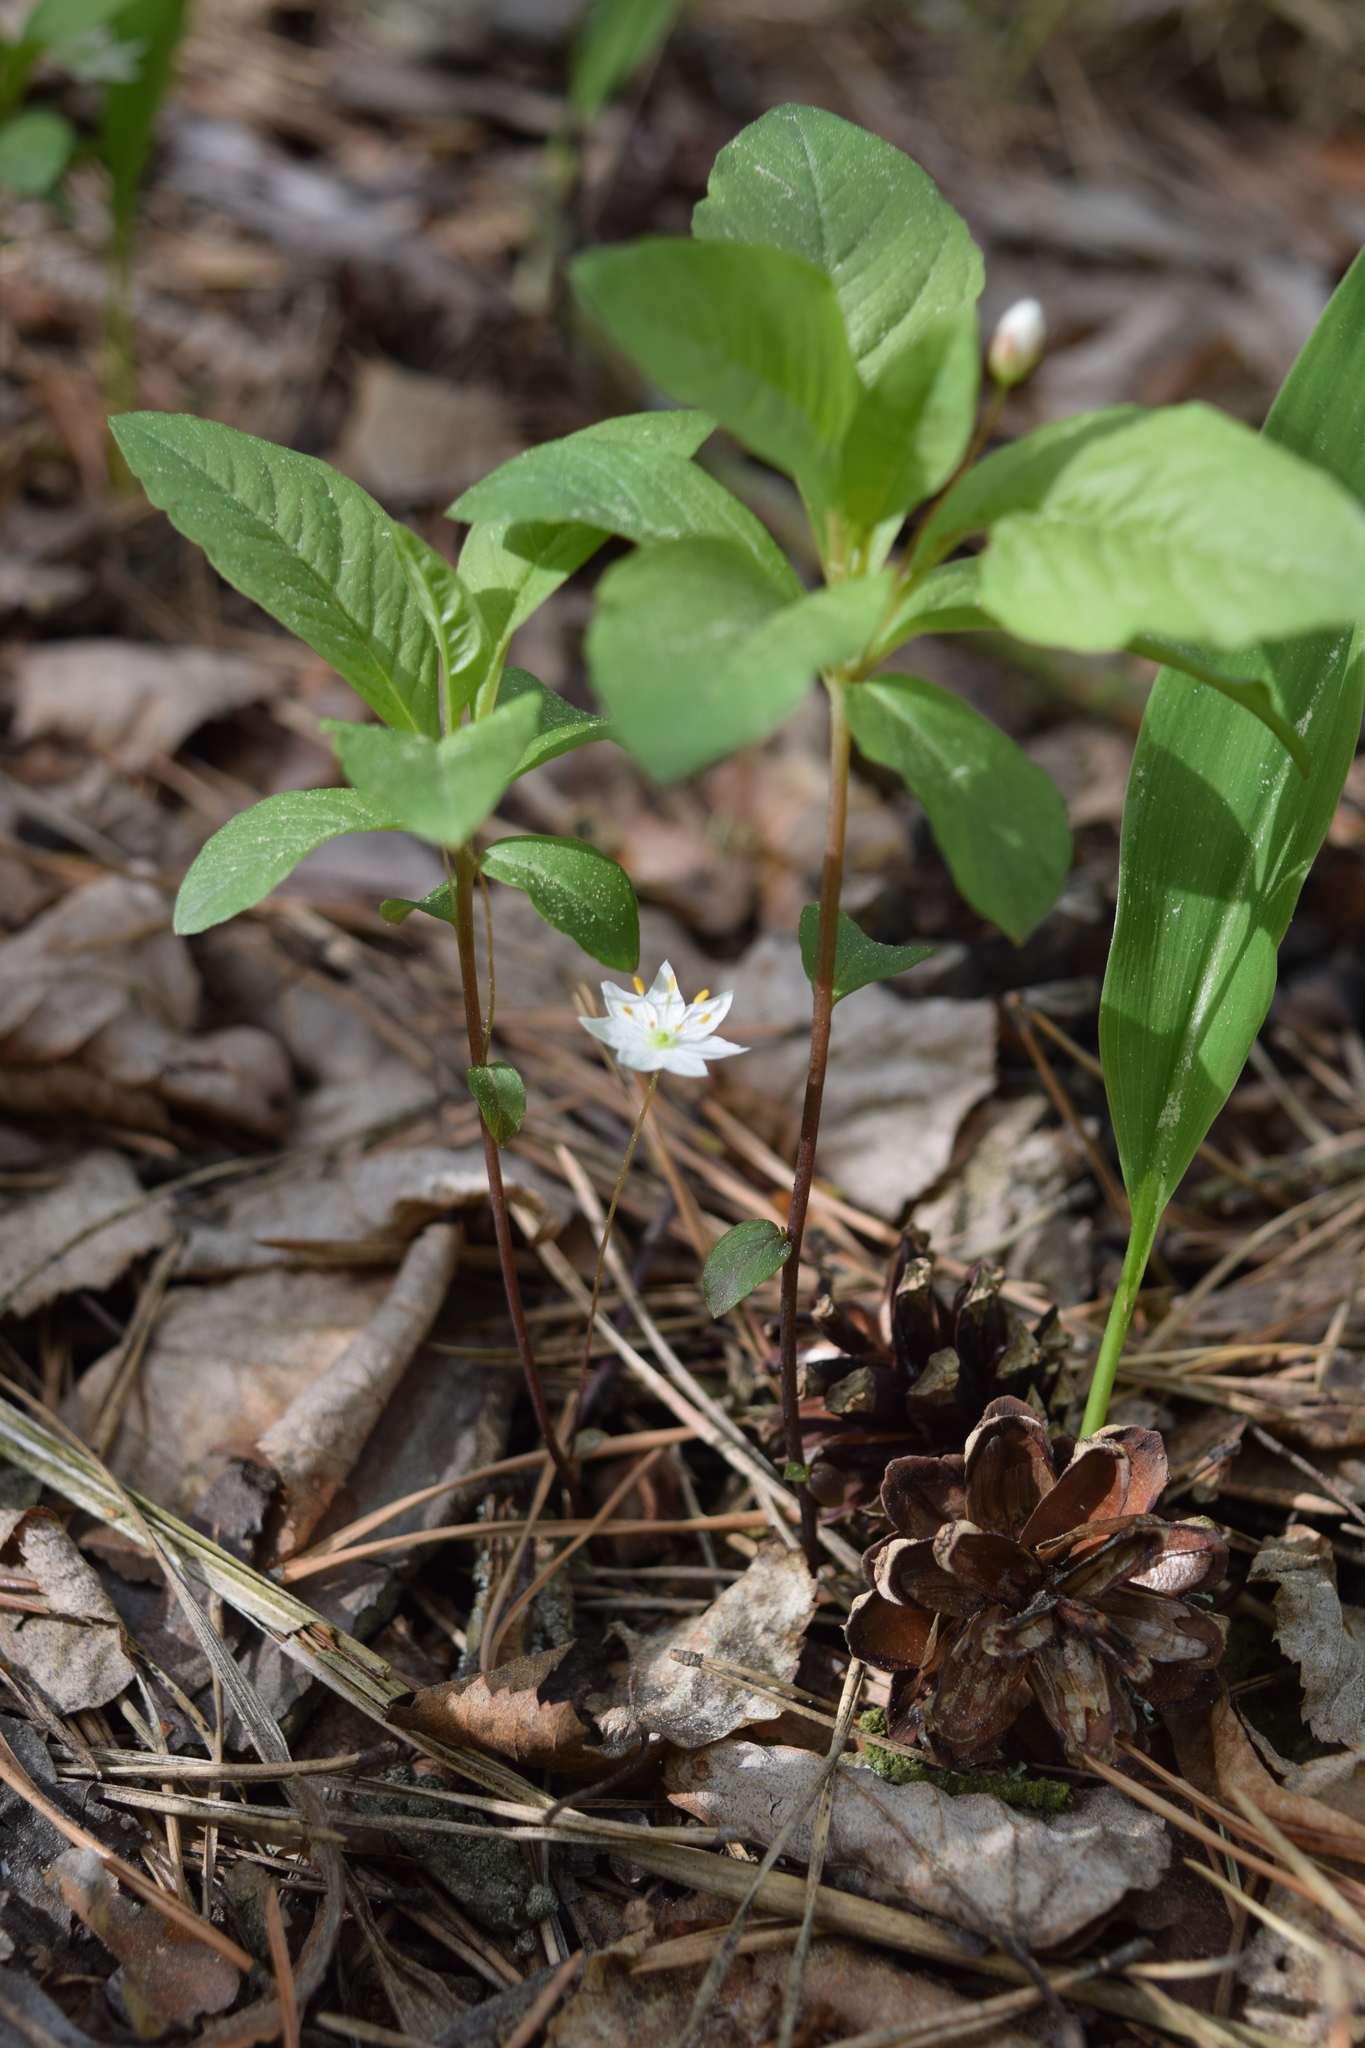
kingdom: Plantae
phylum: Tracheophyta
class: Magnoliopsida
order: Ericales
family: Primulaceae
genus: Lysimachia
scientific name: Lysimachia europaea
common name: Arctic starflower
